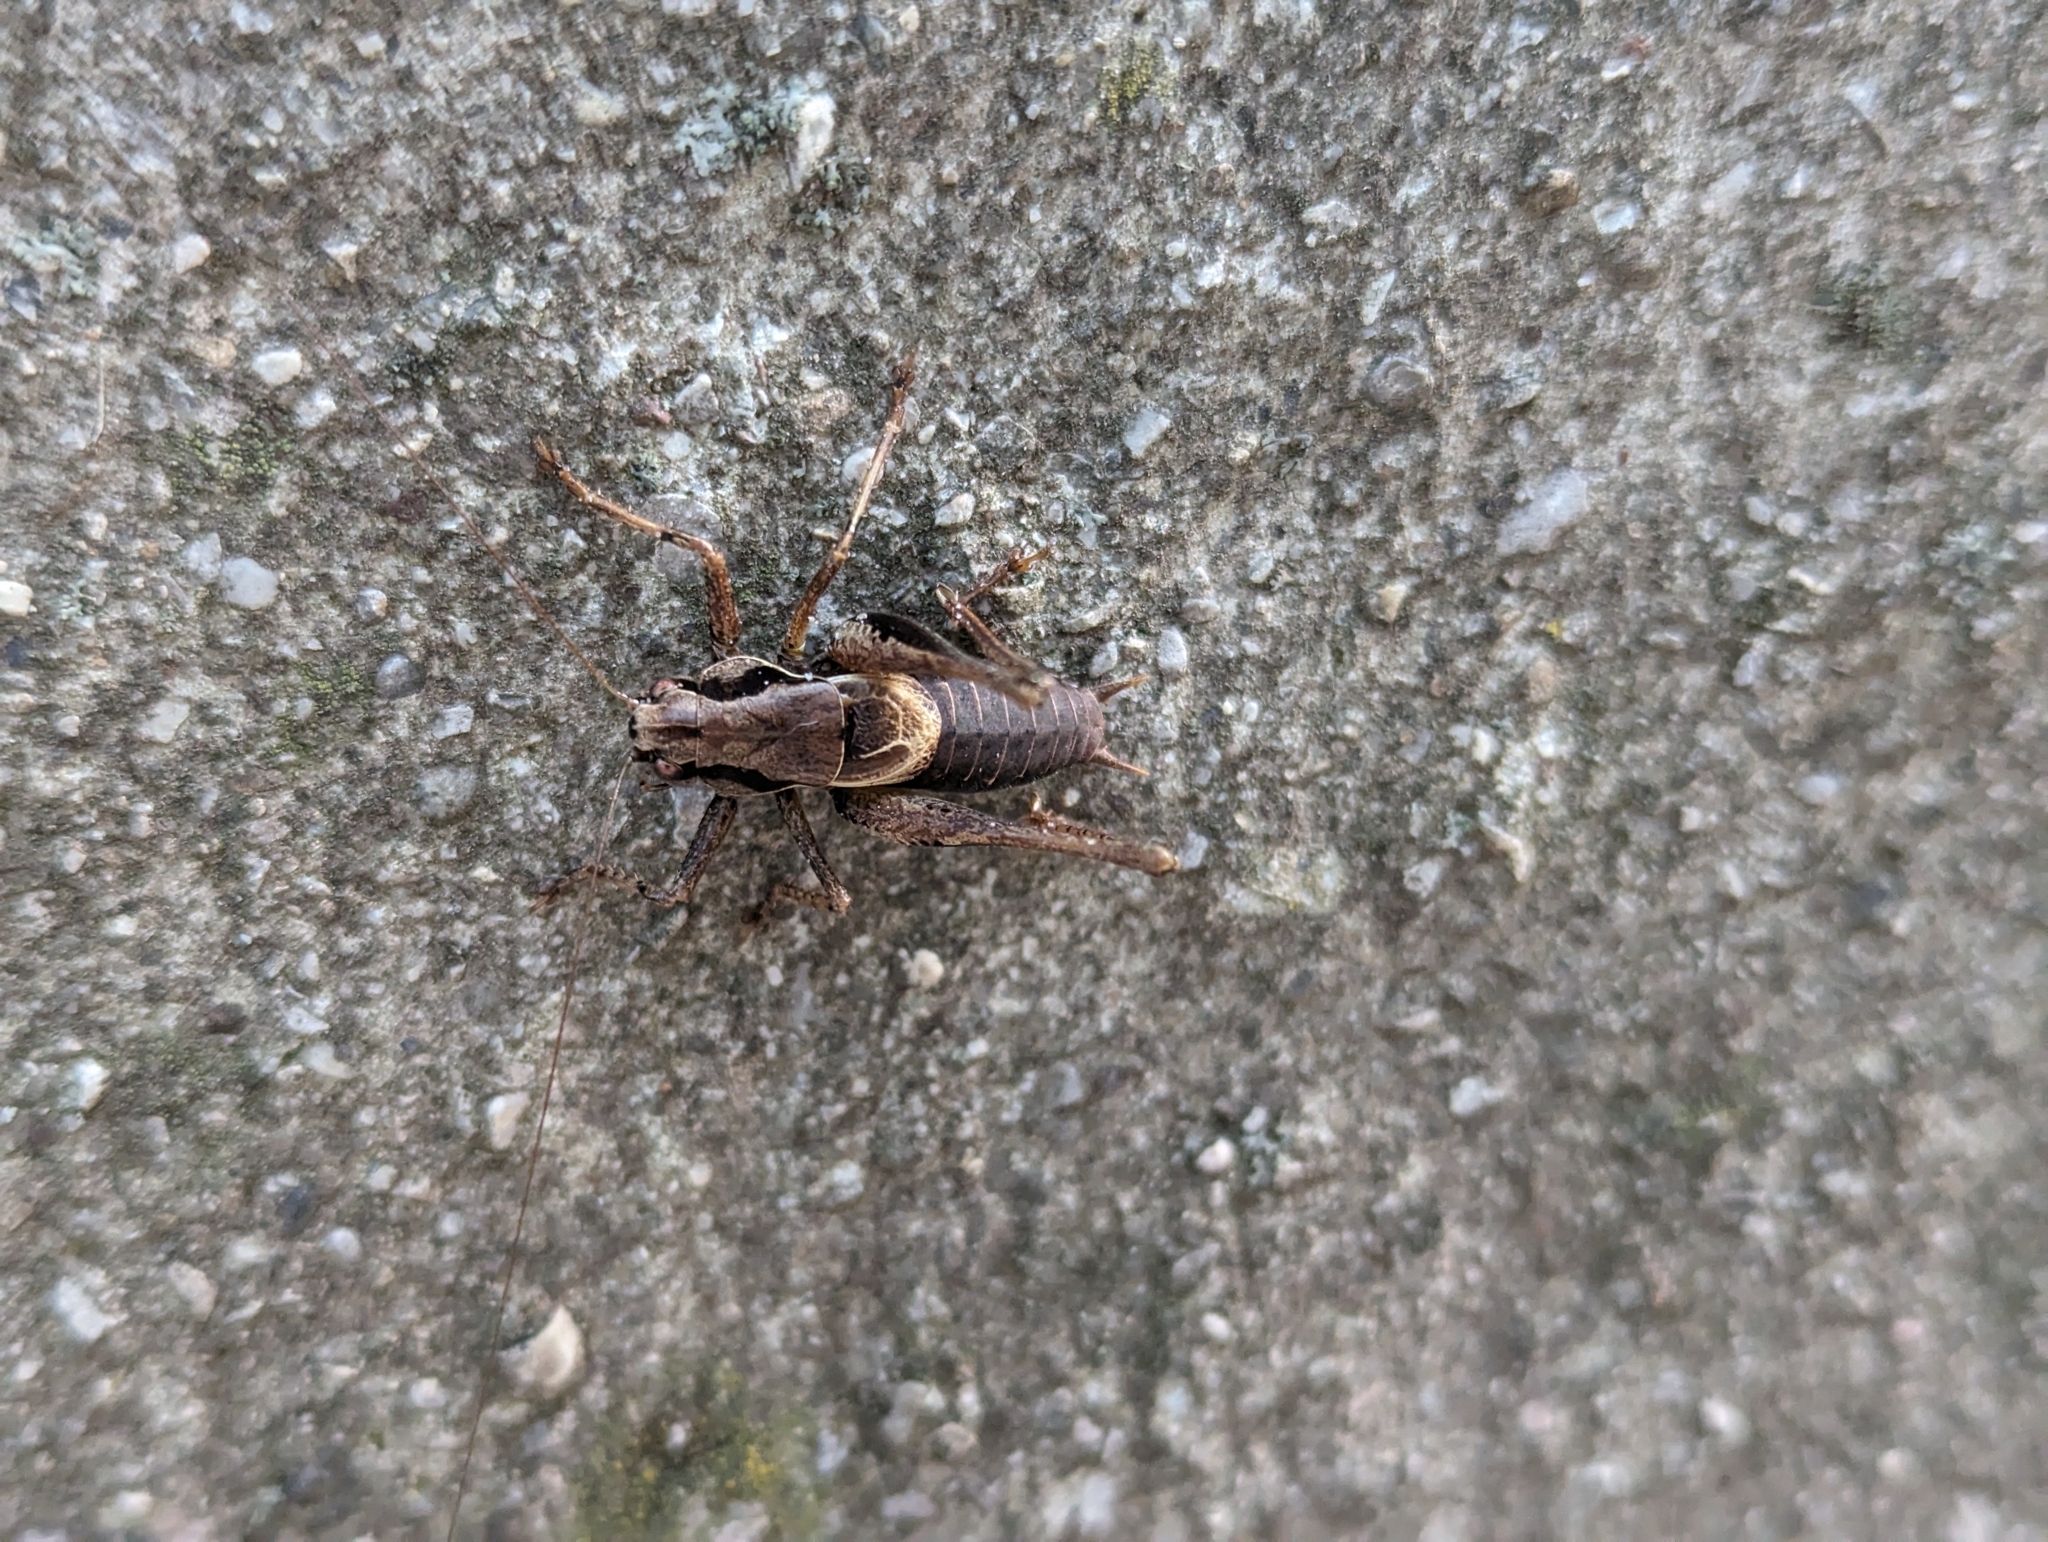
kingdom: Animalia
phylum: Arthropoda
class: Insecta
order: Orthoptera
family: Tettigoniidae
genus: Pholidoptera
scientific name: Pholidoptera griseoaptera
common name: Dark bush-cricket
